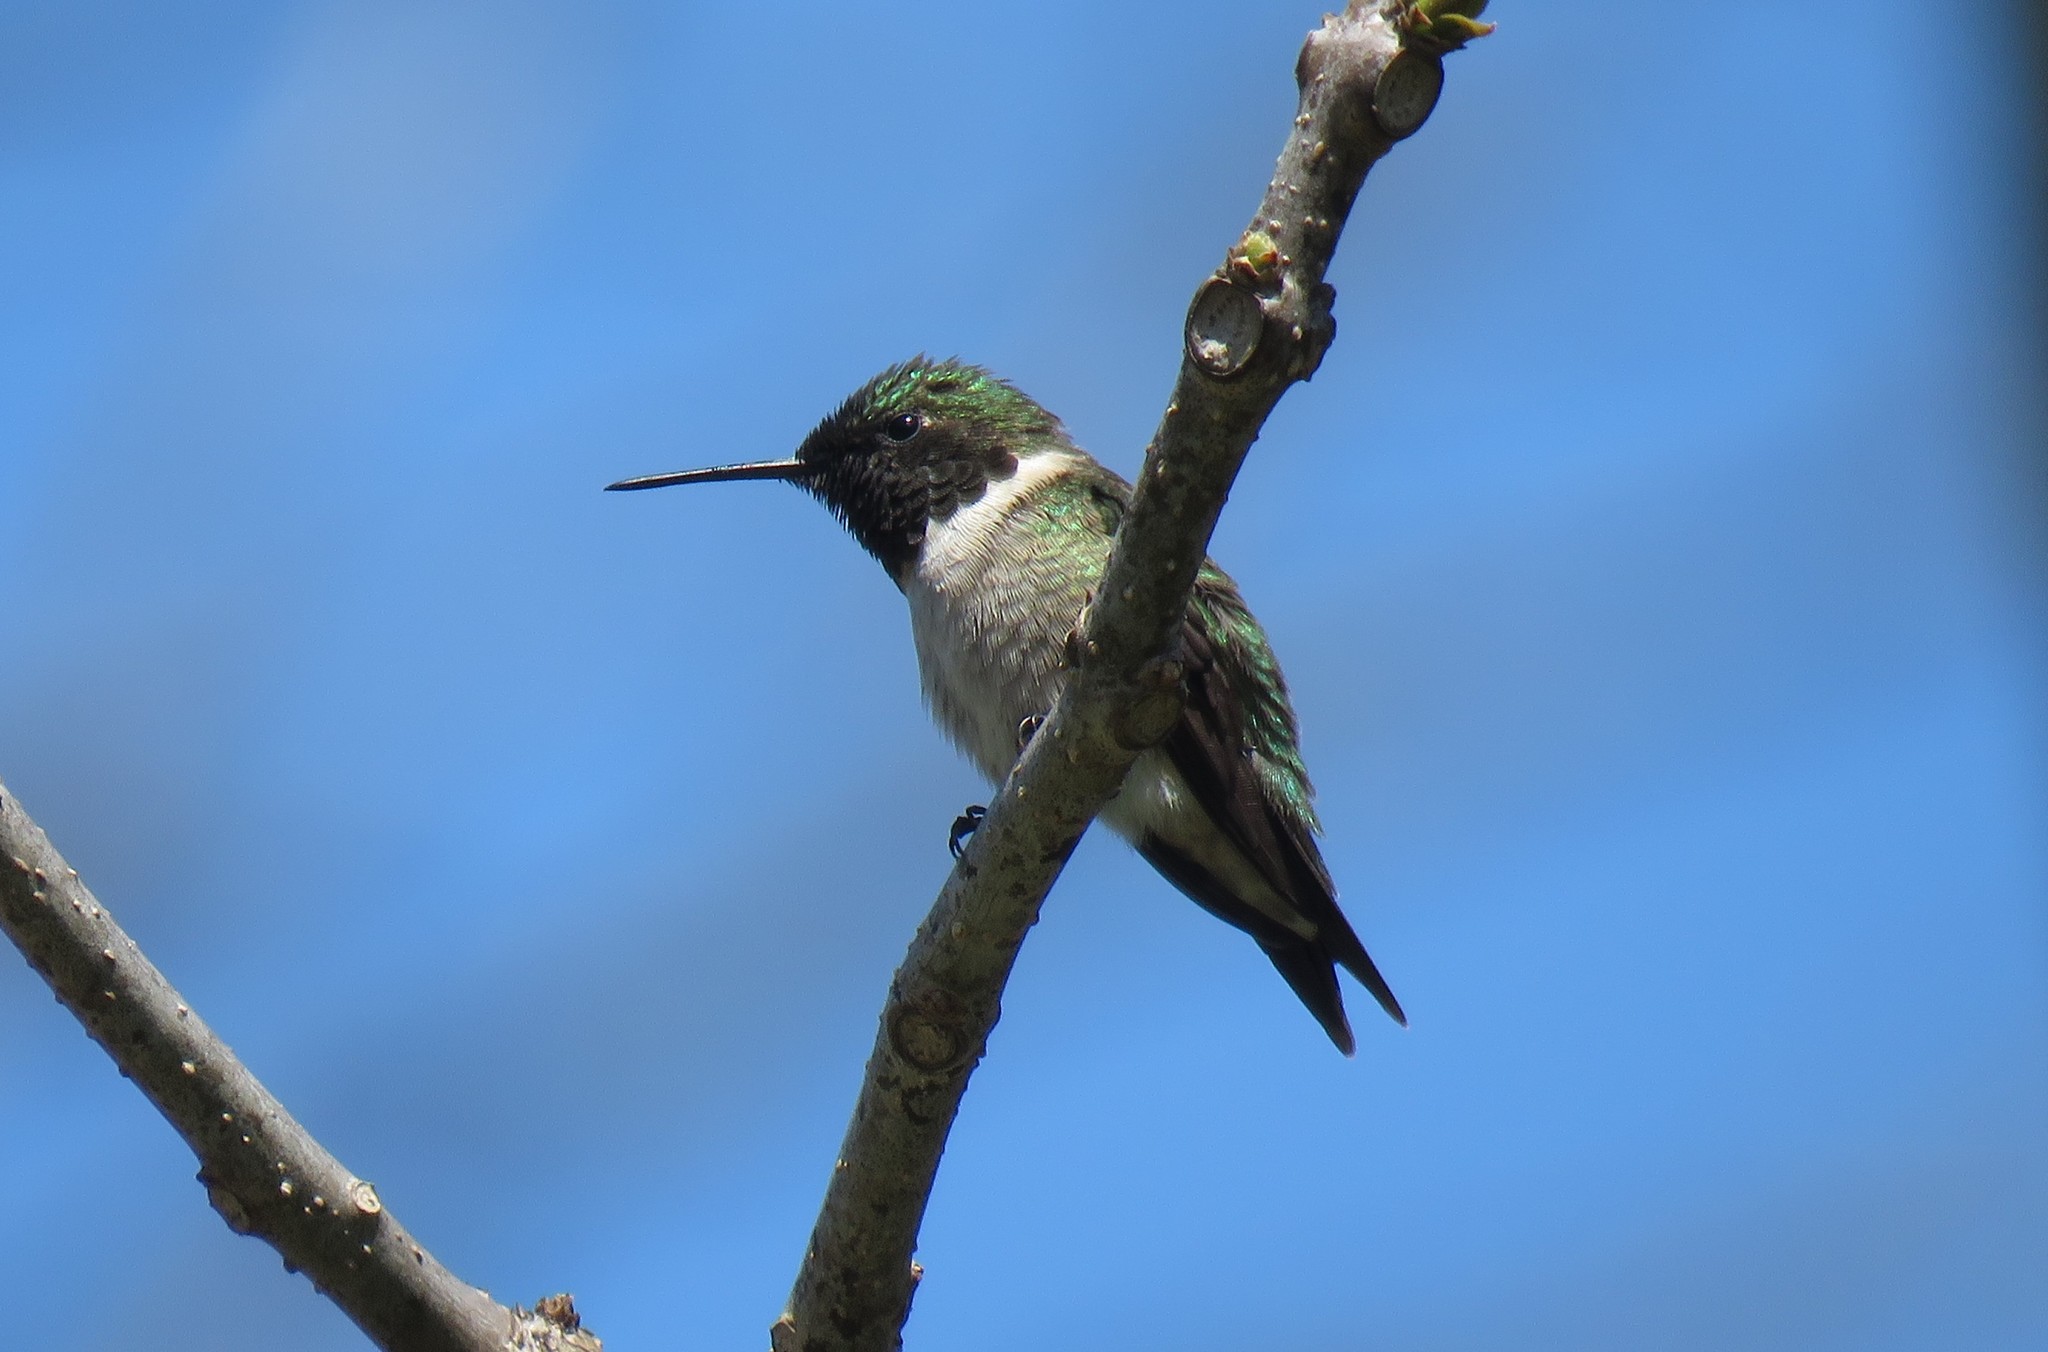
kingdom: Animalia
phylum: Chordata
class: Aves
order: Apodiformes
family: Trochilidae
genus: Archilochus
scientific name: Archilochus colubris
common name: Ruby-throated hummingbird
